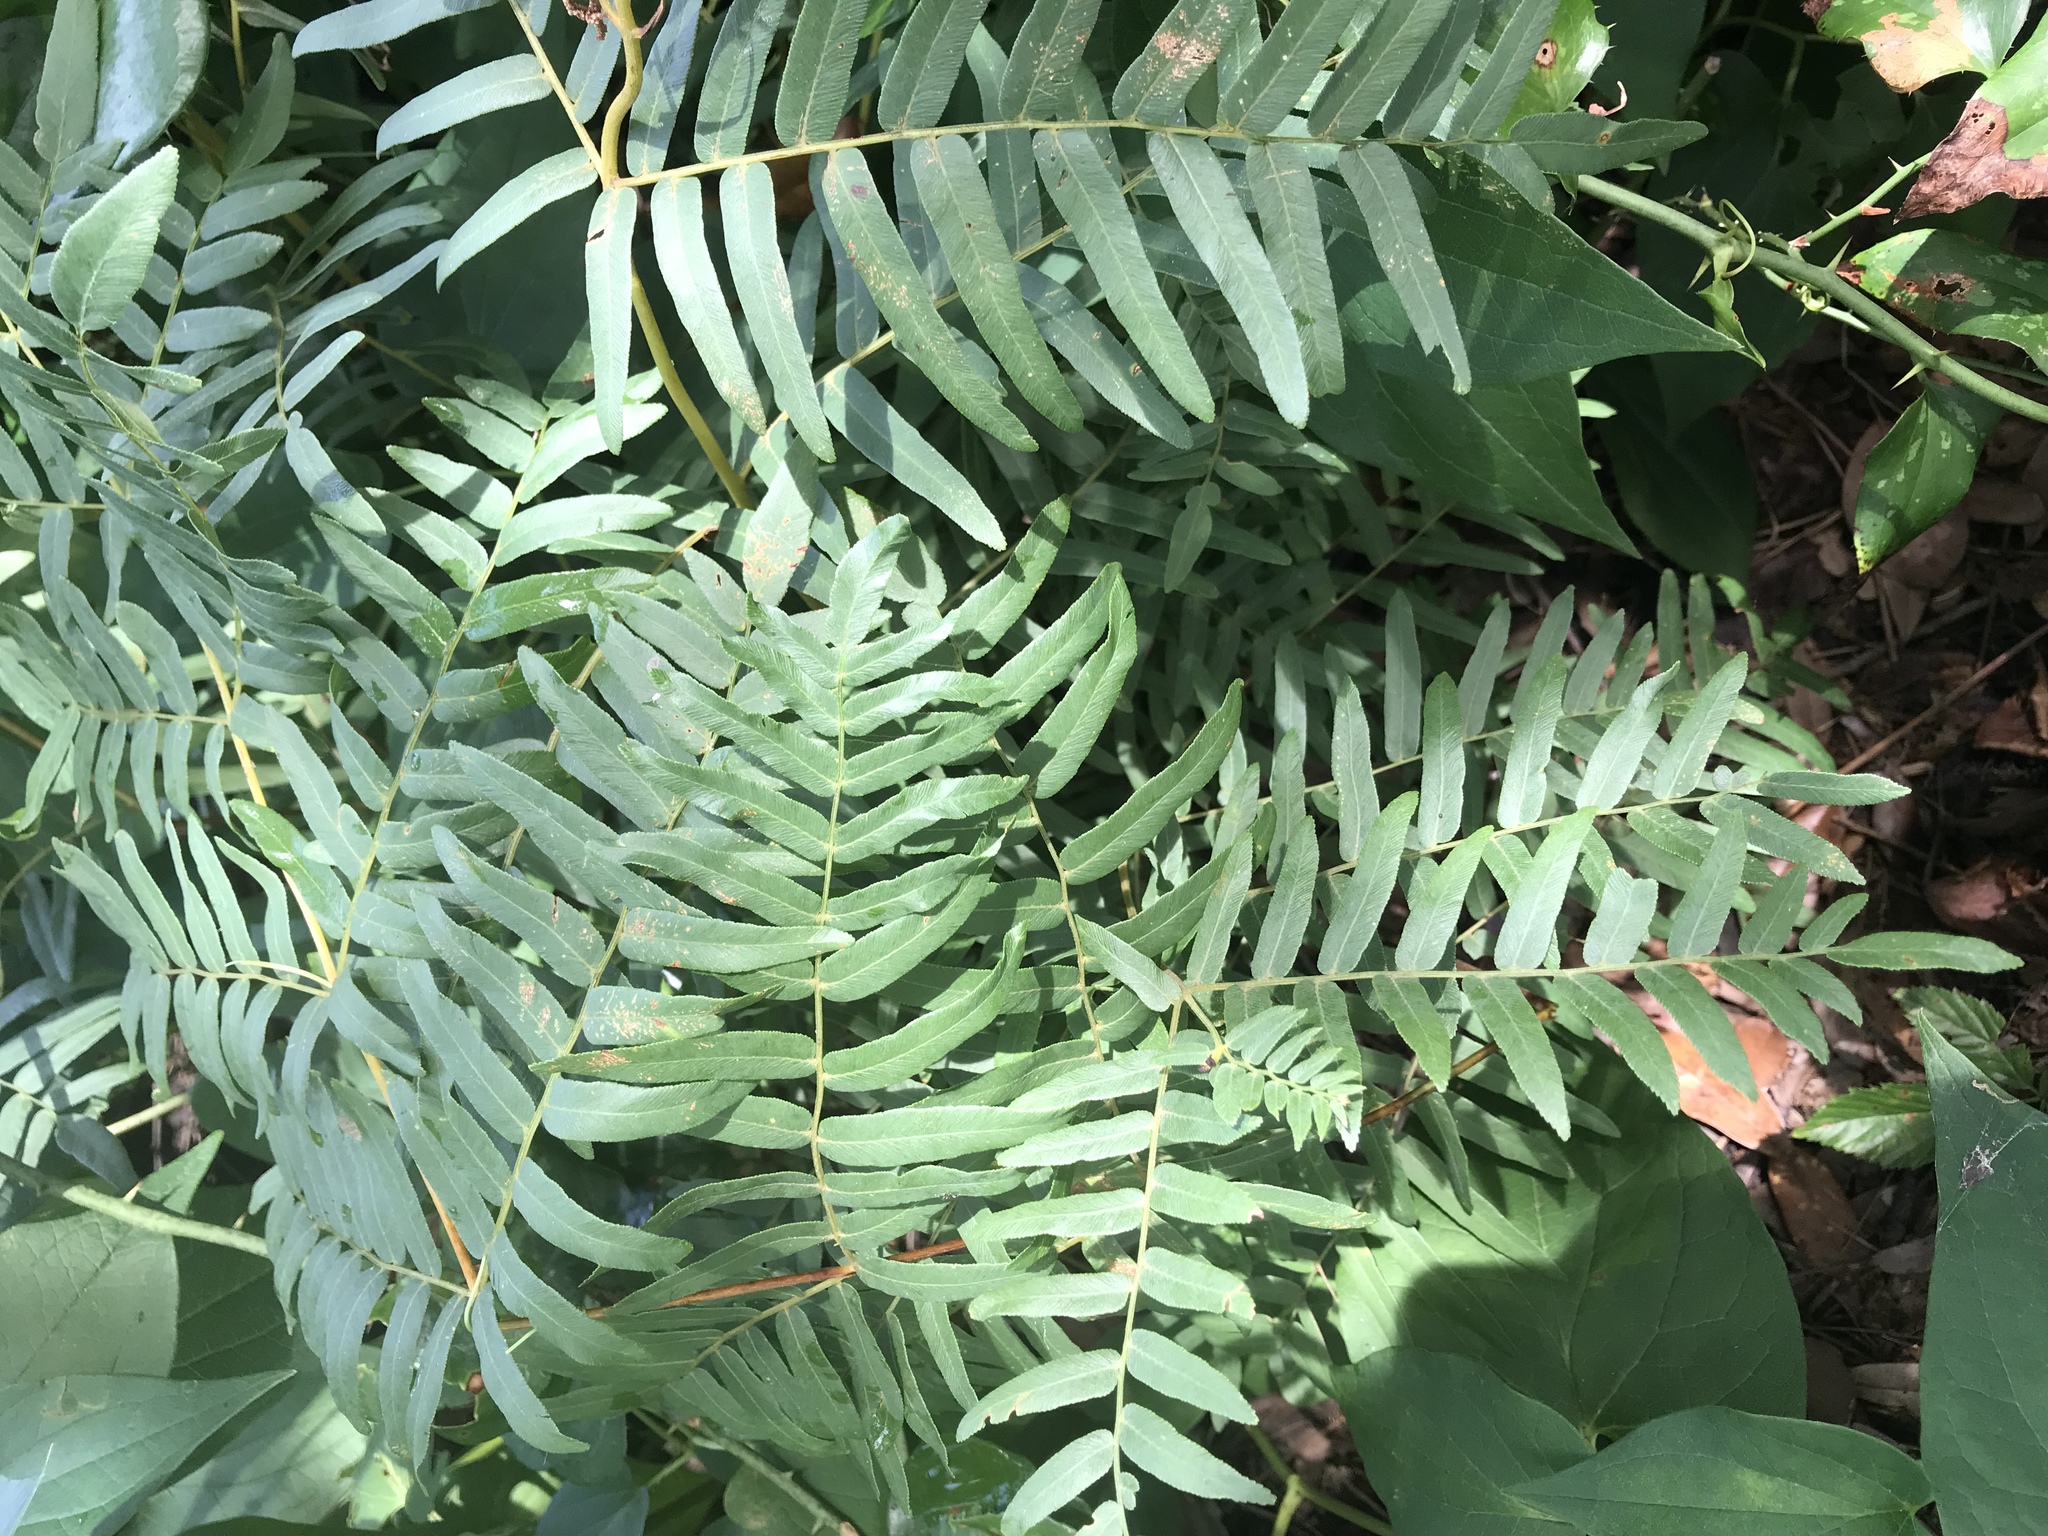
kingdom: Plantae
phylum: Tracheophyta
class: Polypodiopsida
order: Osmundales
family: Osmundaceae
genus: Osmunda
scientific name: Osmunda spectabilis
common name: American royal fern
